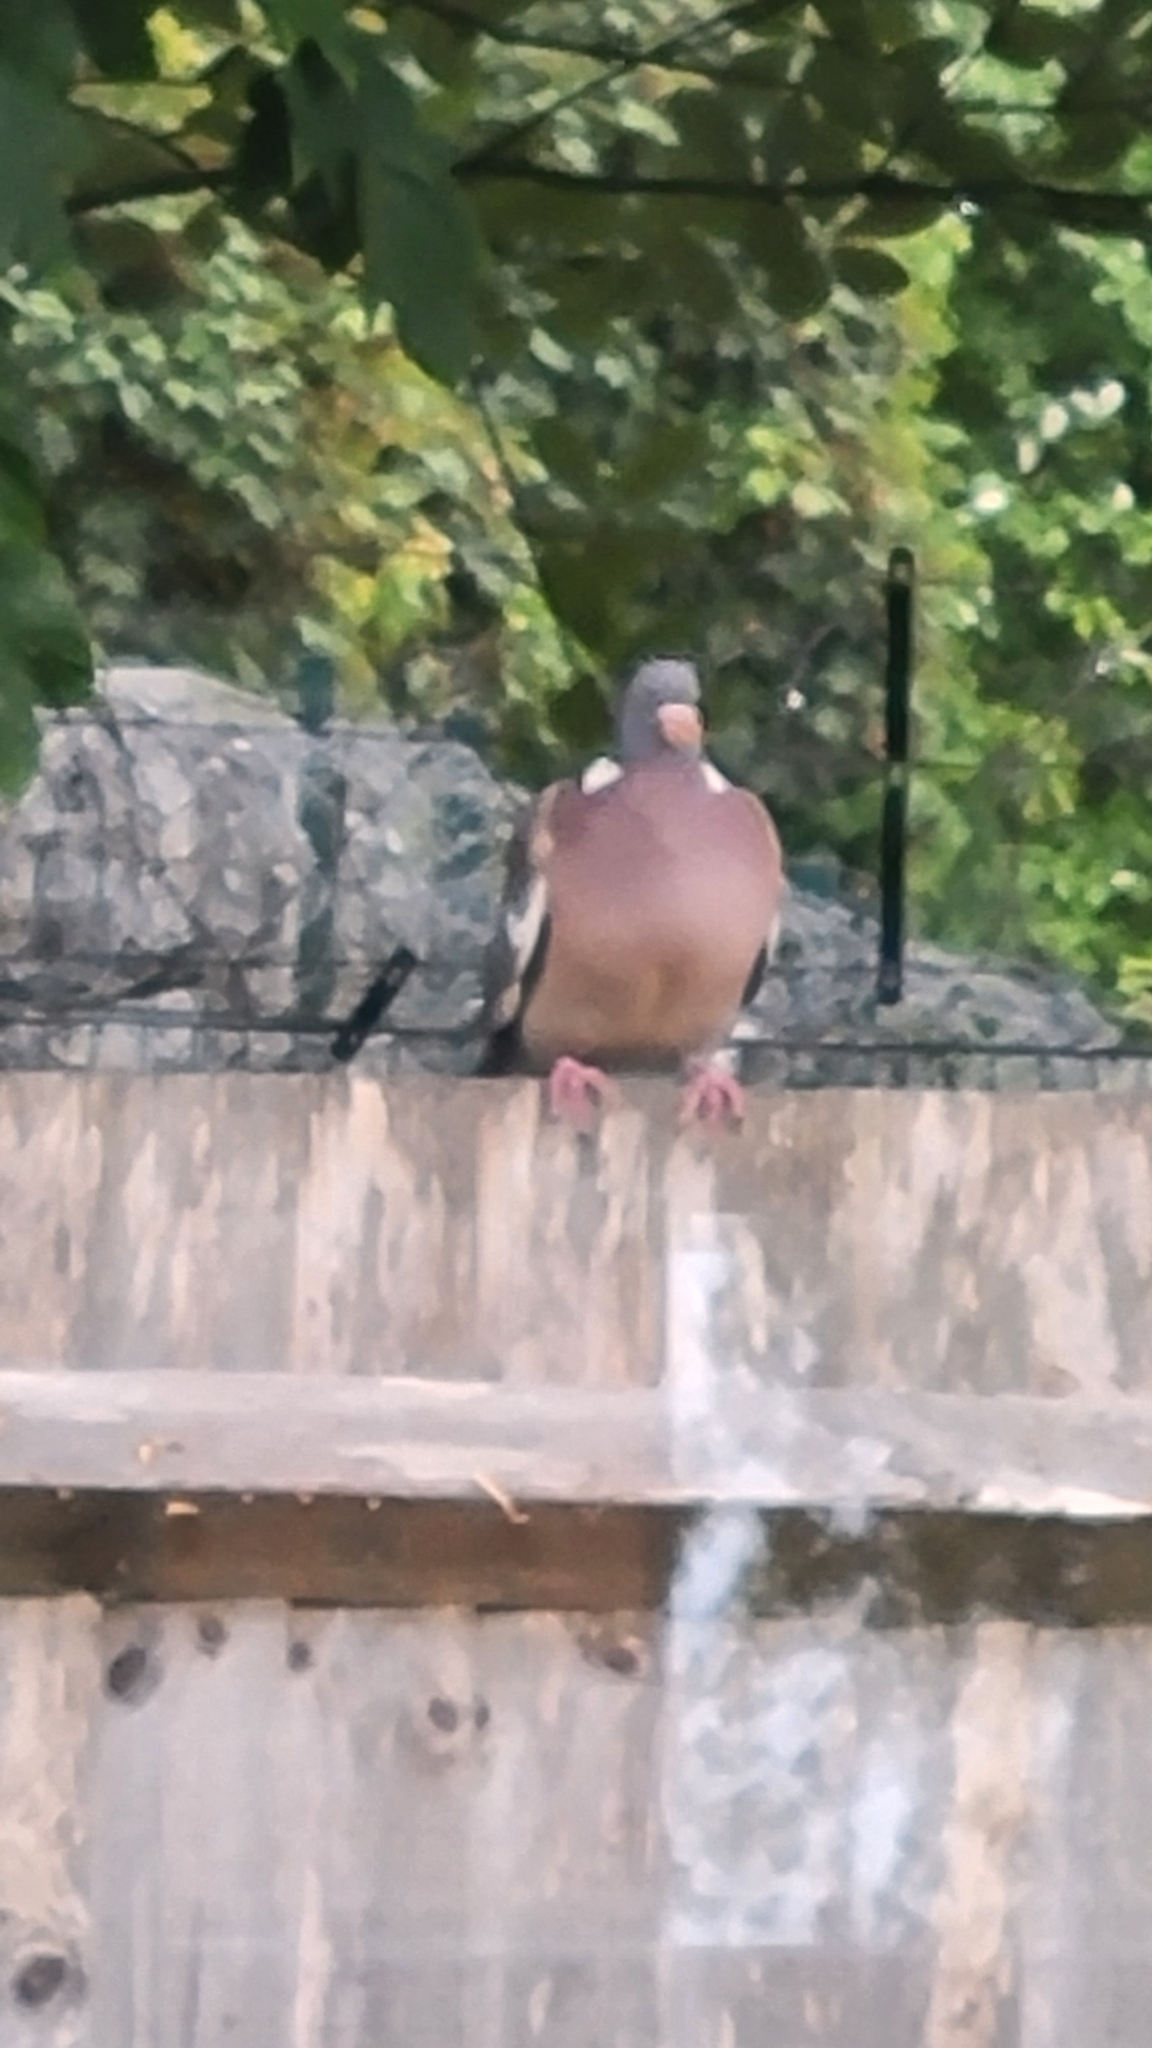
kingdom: Animalia
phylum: Chordata
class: Aves
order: Columbiformes
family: Columbidae
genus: Columba
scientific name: Columba palumbus
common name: Common wood pigeon
